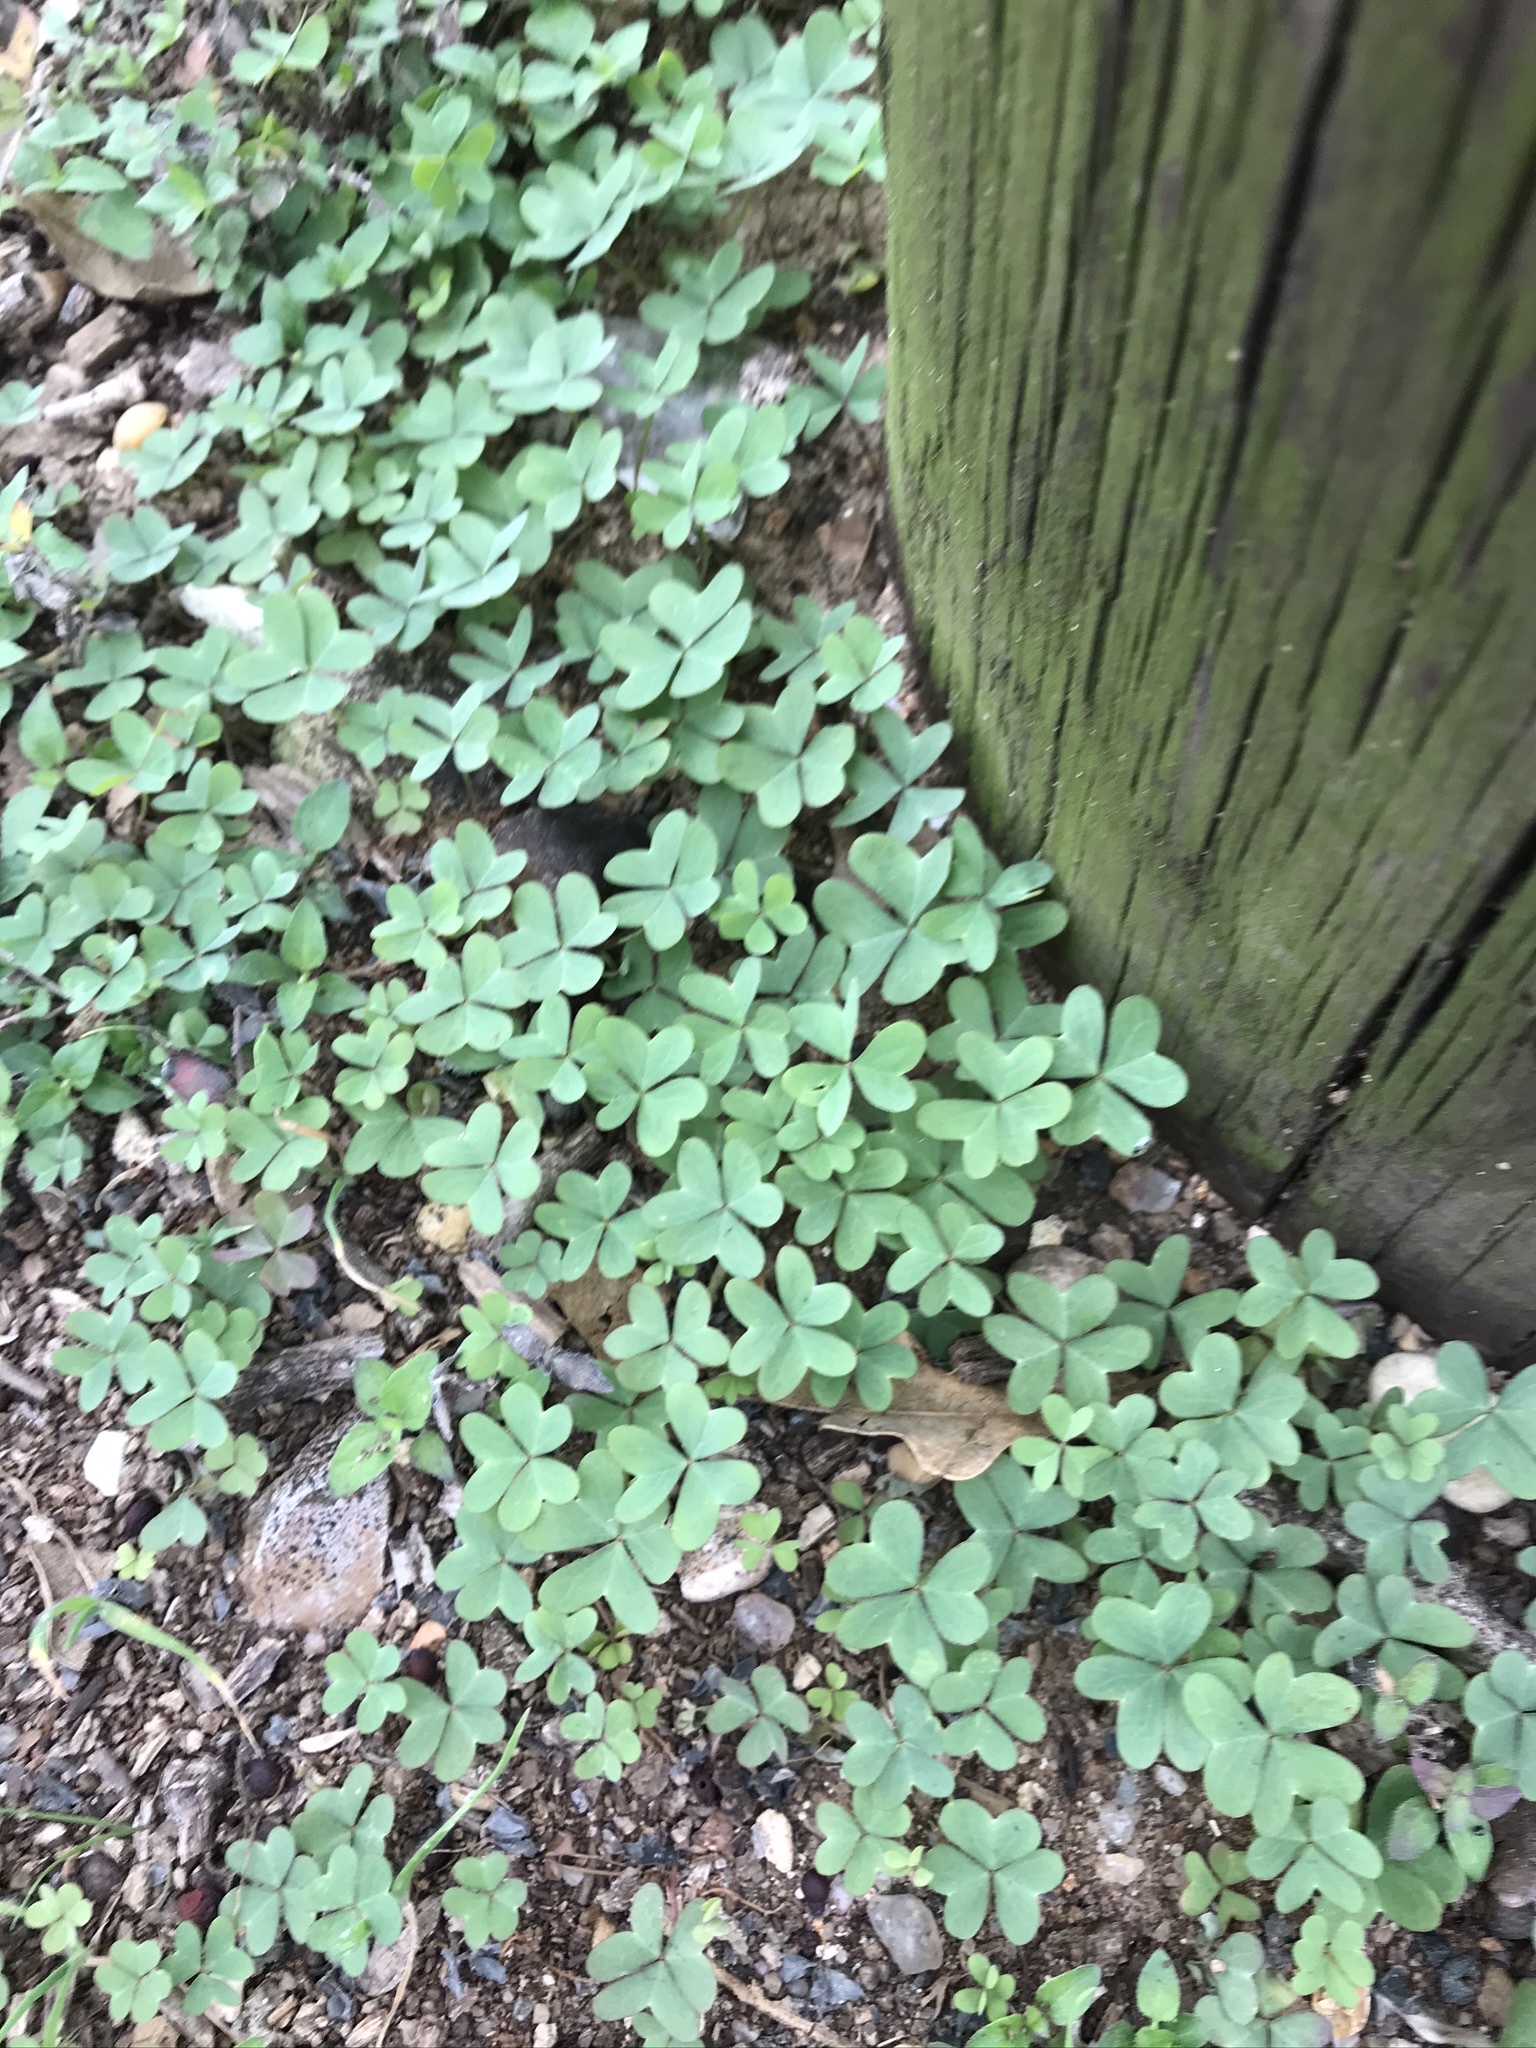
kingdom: Plantae
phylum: Tracheophyta
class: Magnoliopsida
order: Oxalidales
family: Oxalidaceae
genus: Oxalis
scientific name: Oxalis drummondii
